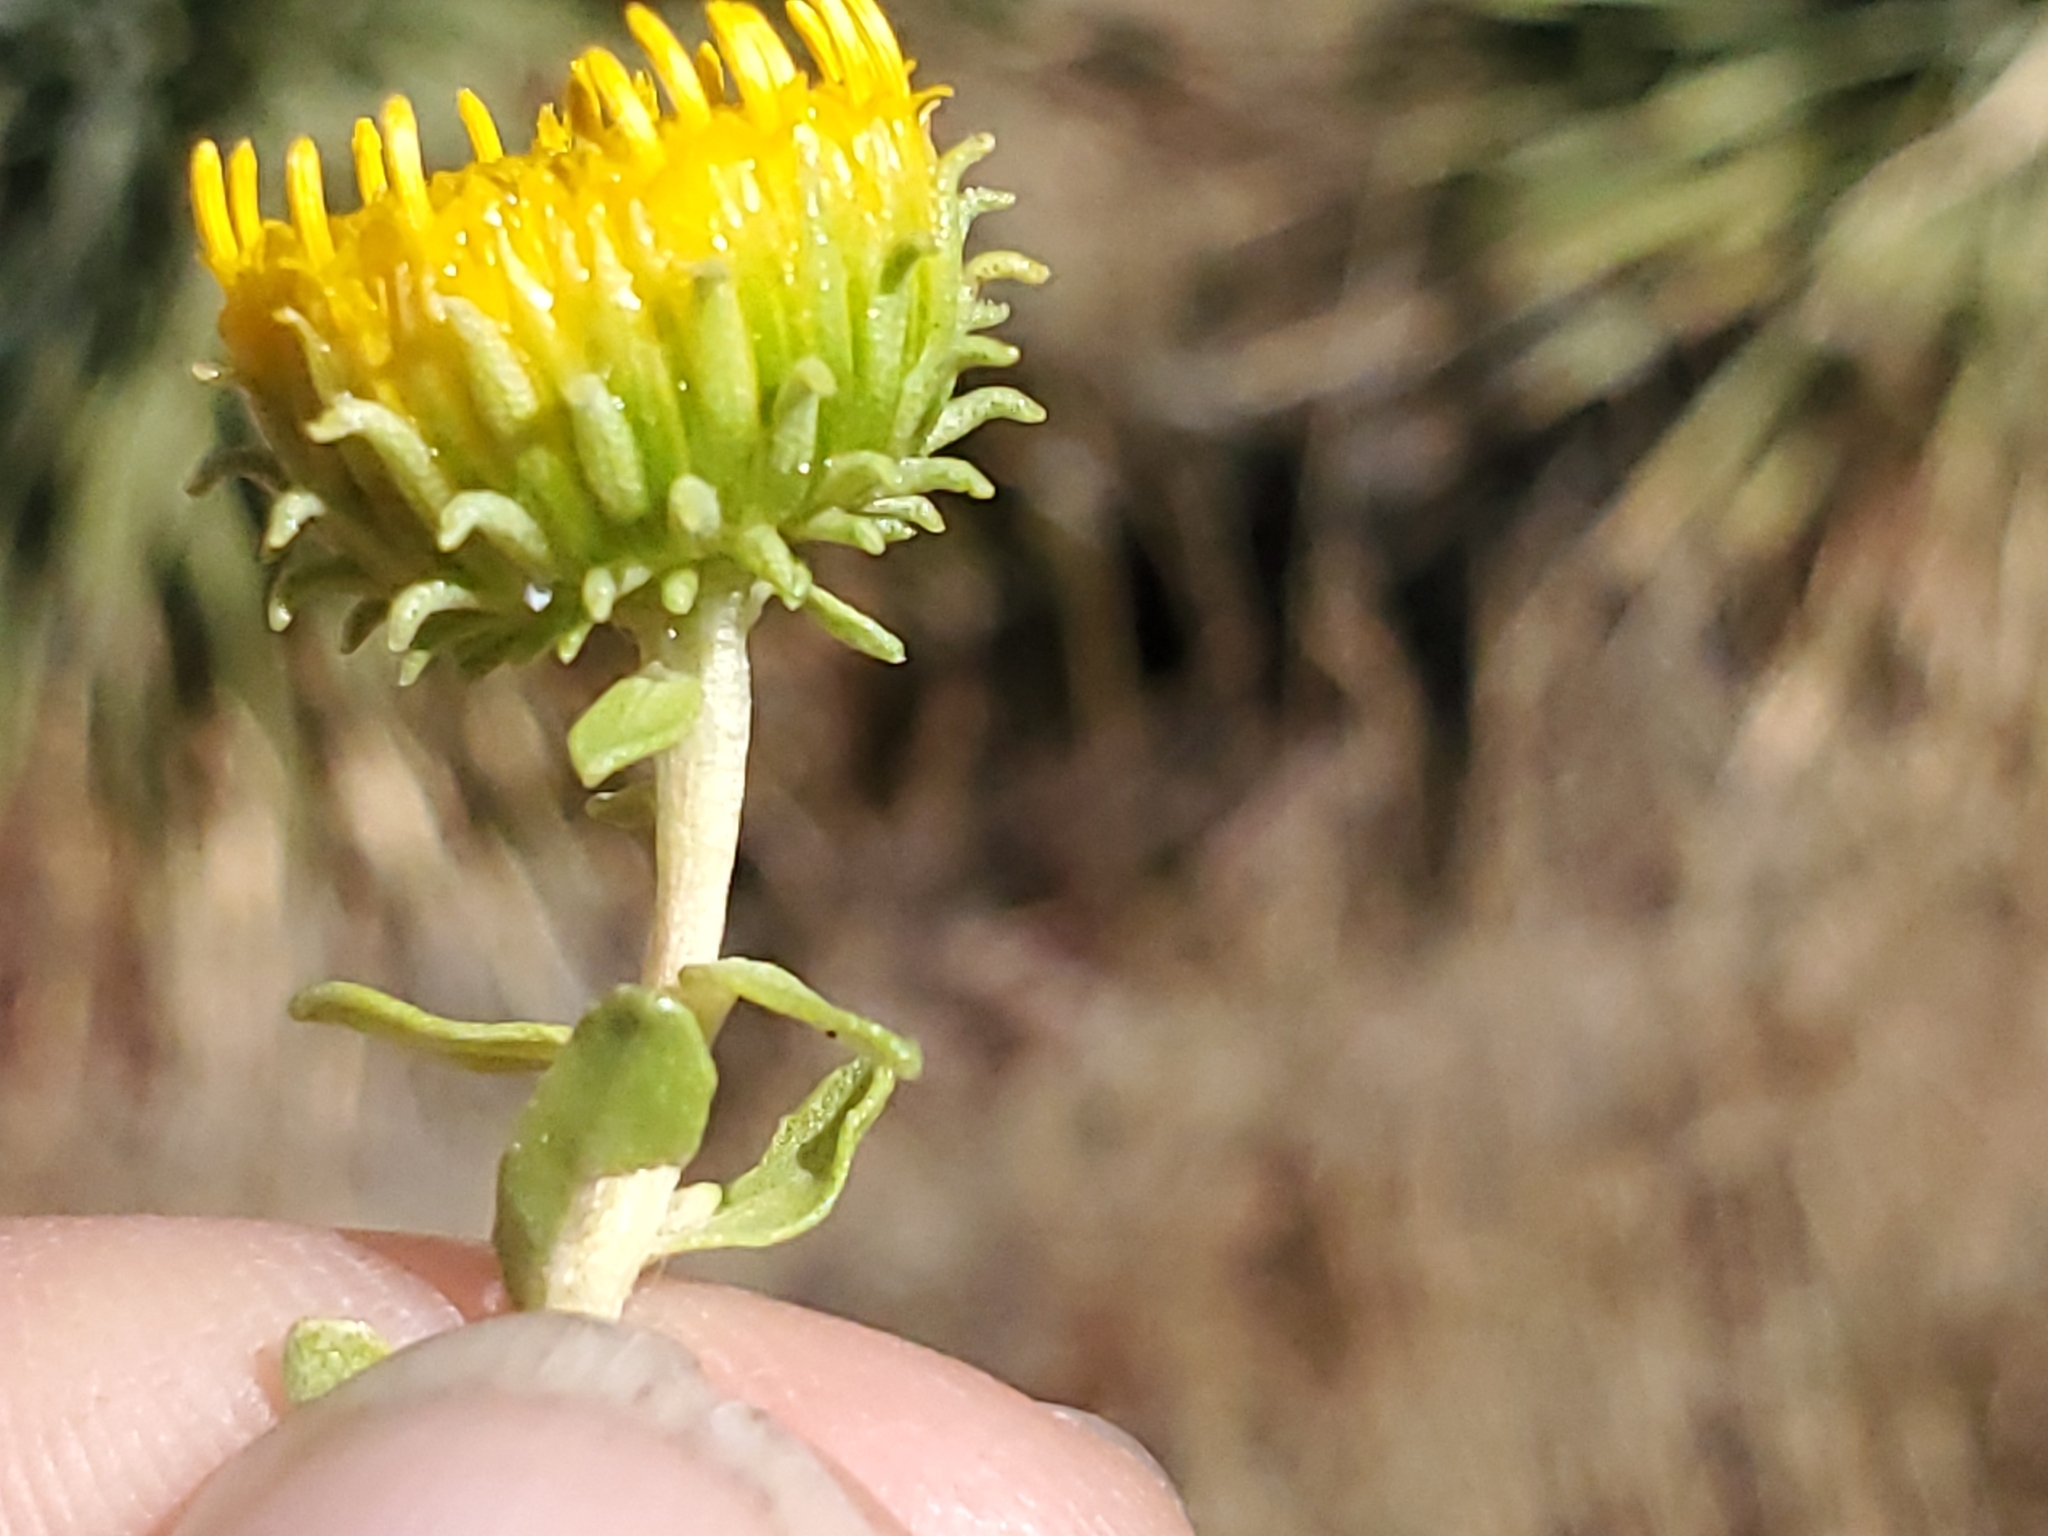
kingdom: Plantae
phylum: Tracheophyta
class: Magnoliopsida
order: Asterales
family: Asteraceae
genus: Grindelia
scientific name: Grindelia nuda
